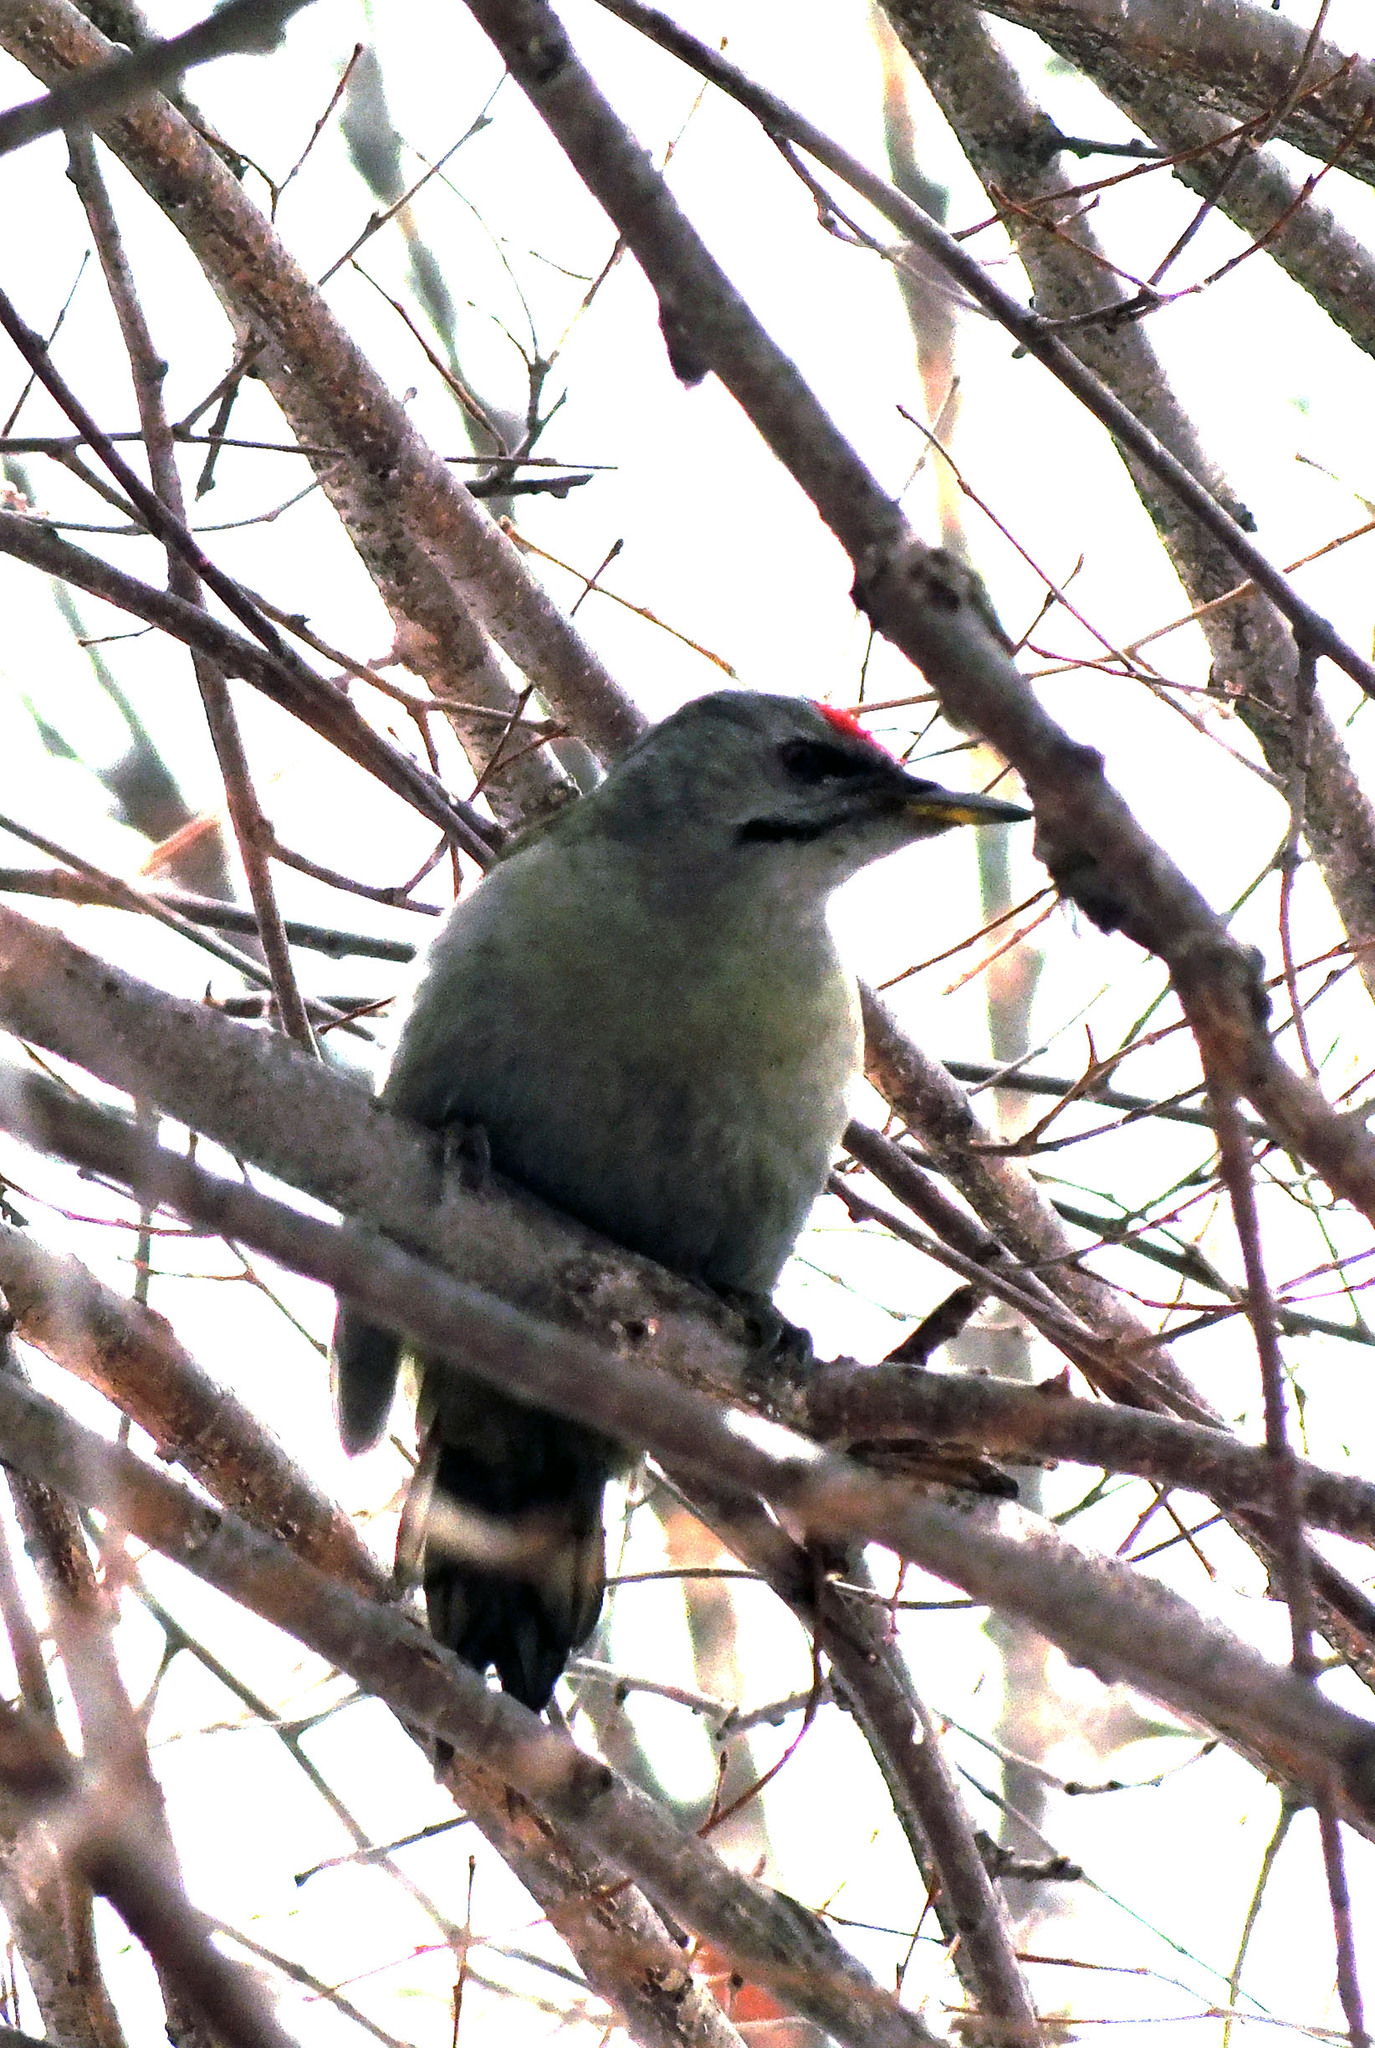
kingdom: Animalia
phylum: Chordata
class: Aves
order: Piciformes
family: Picidae
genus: Picus
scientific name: Picus canus
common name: Grey-headed woodpecker
